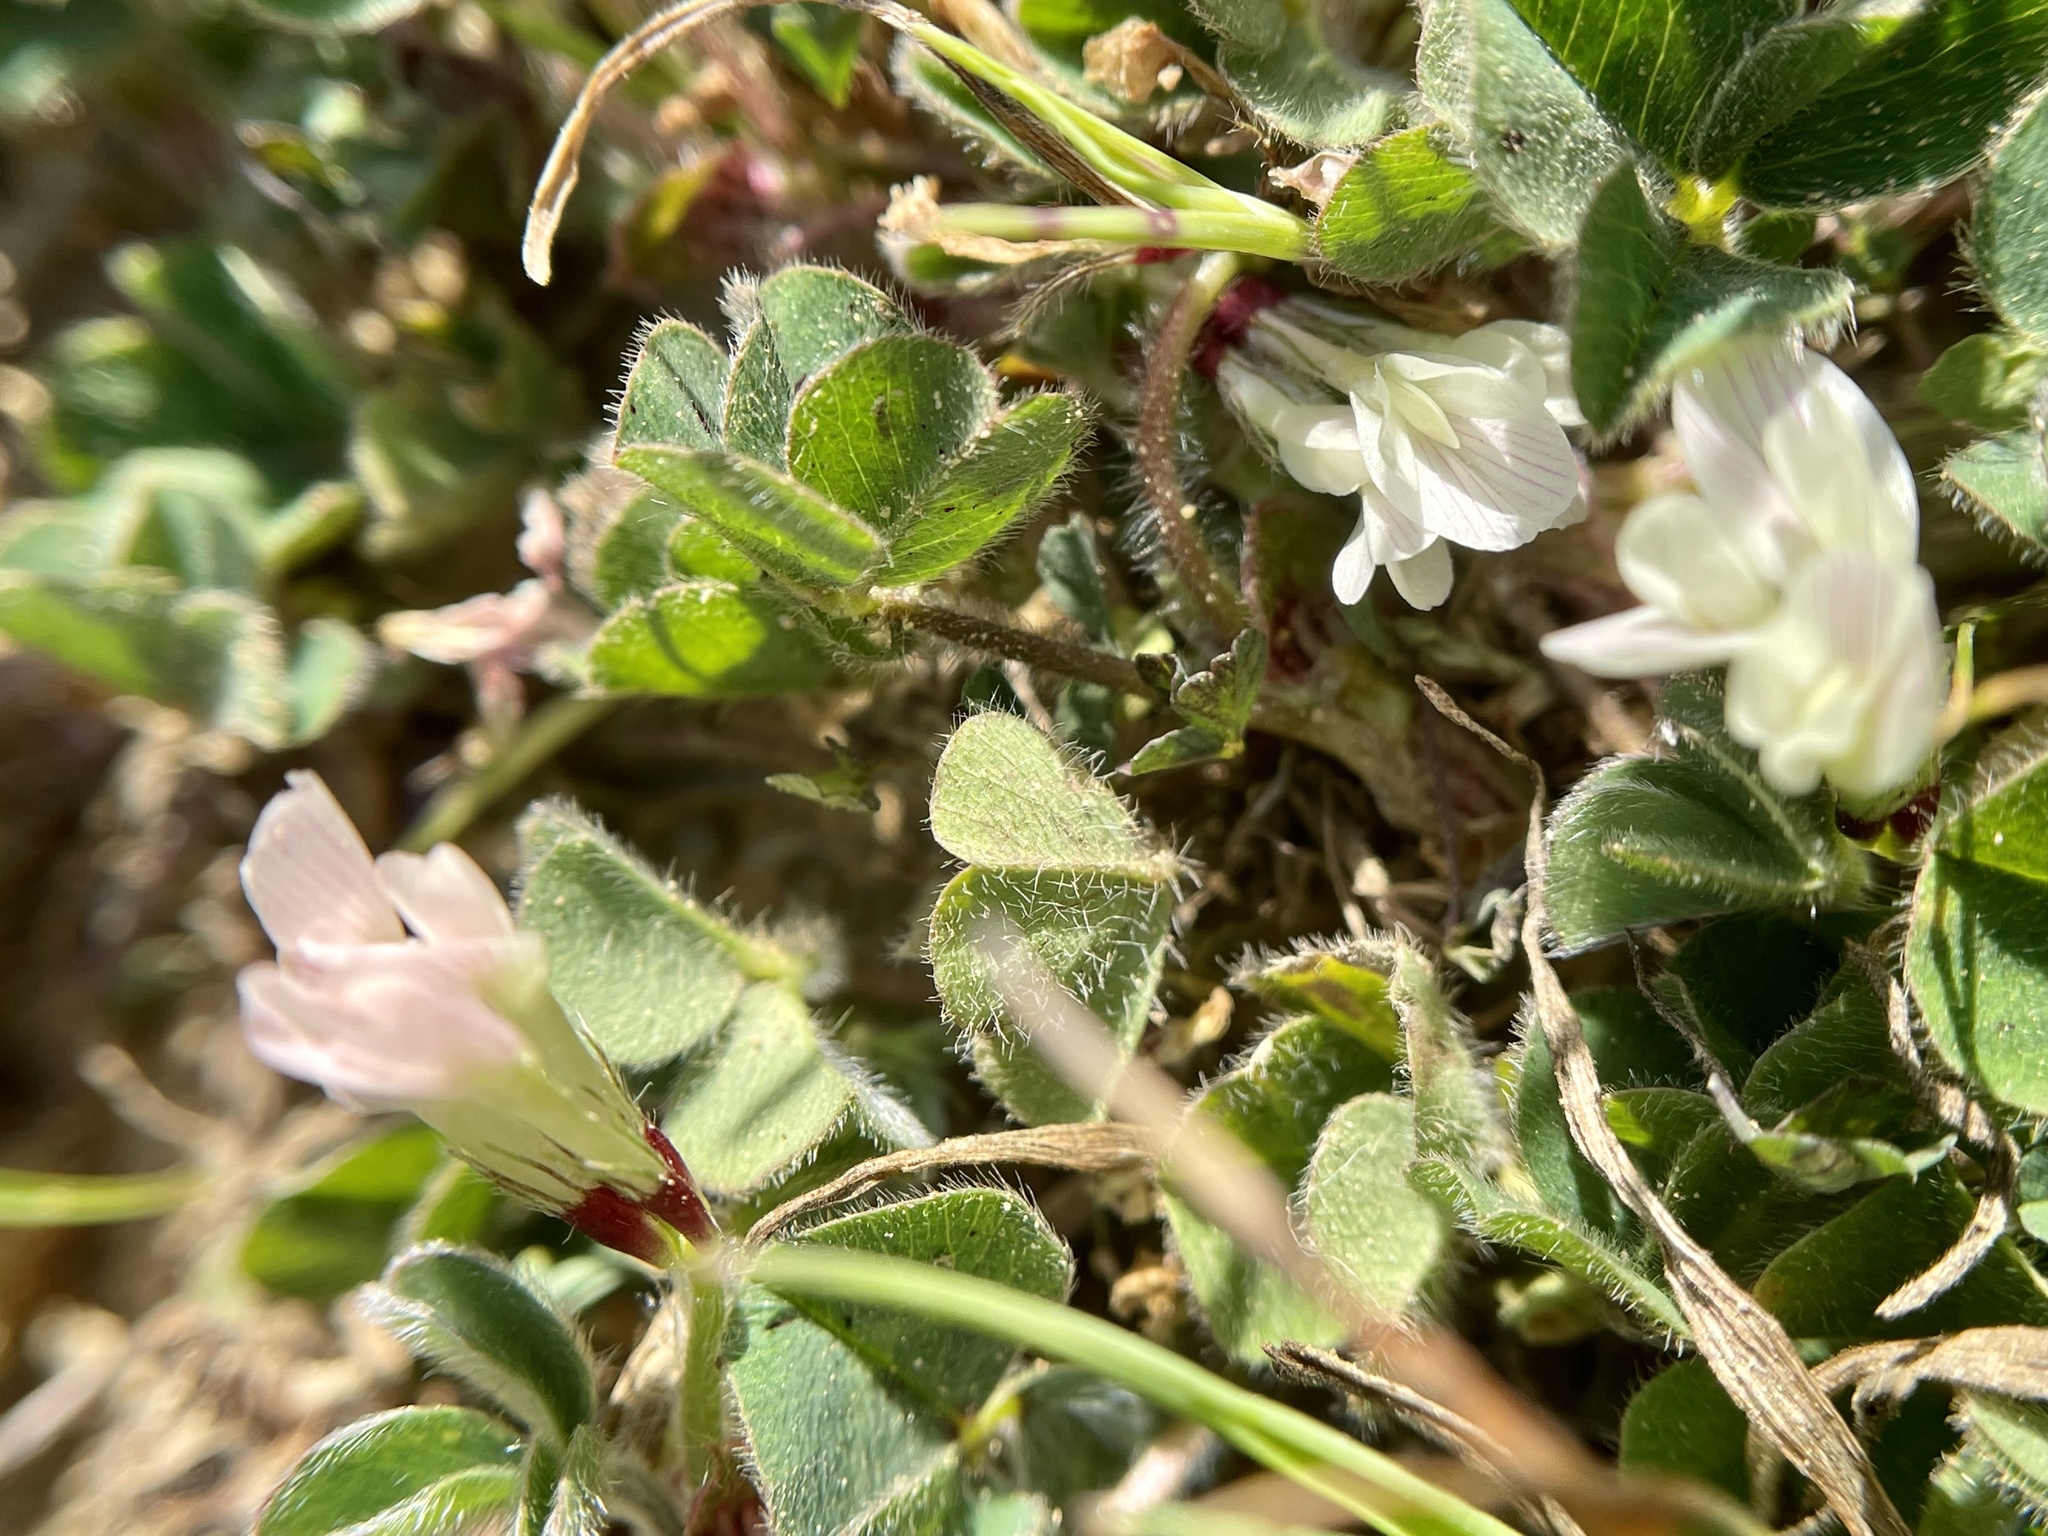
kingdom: Plantae
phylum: Tracheophyta
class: Magnoliopsida
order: Fabales
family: Fabaceae
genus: Trifolium
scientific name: Trifolium subterraneum
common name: Subterranean clover
